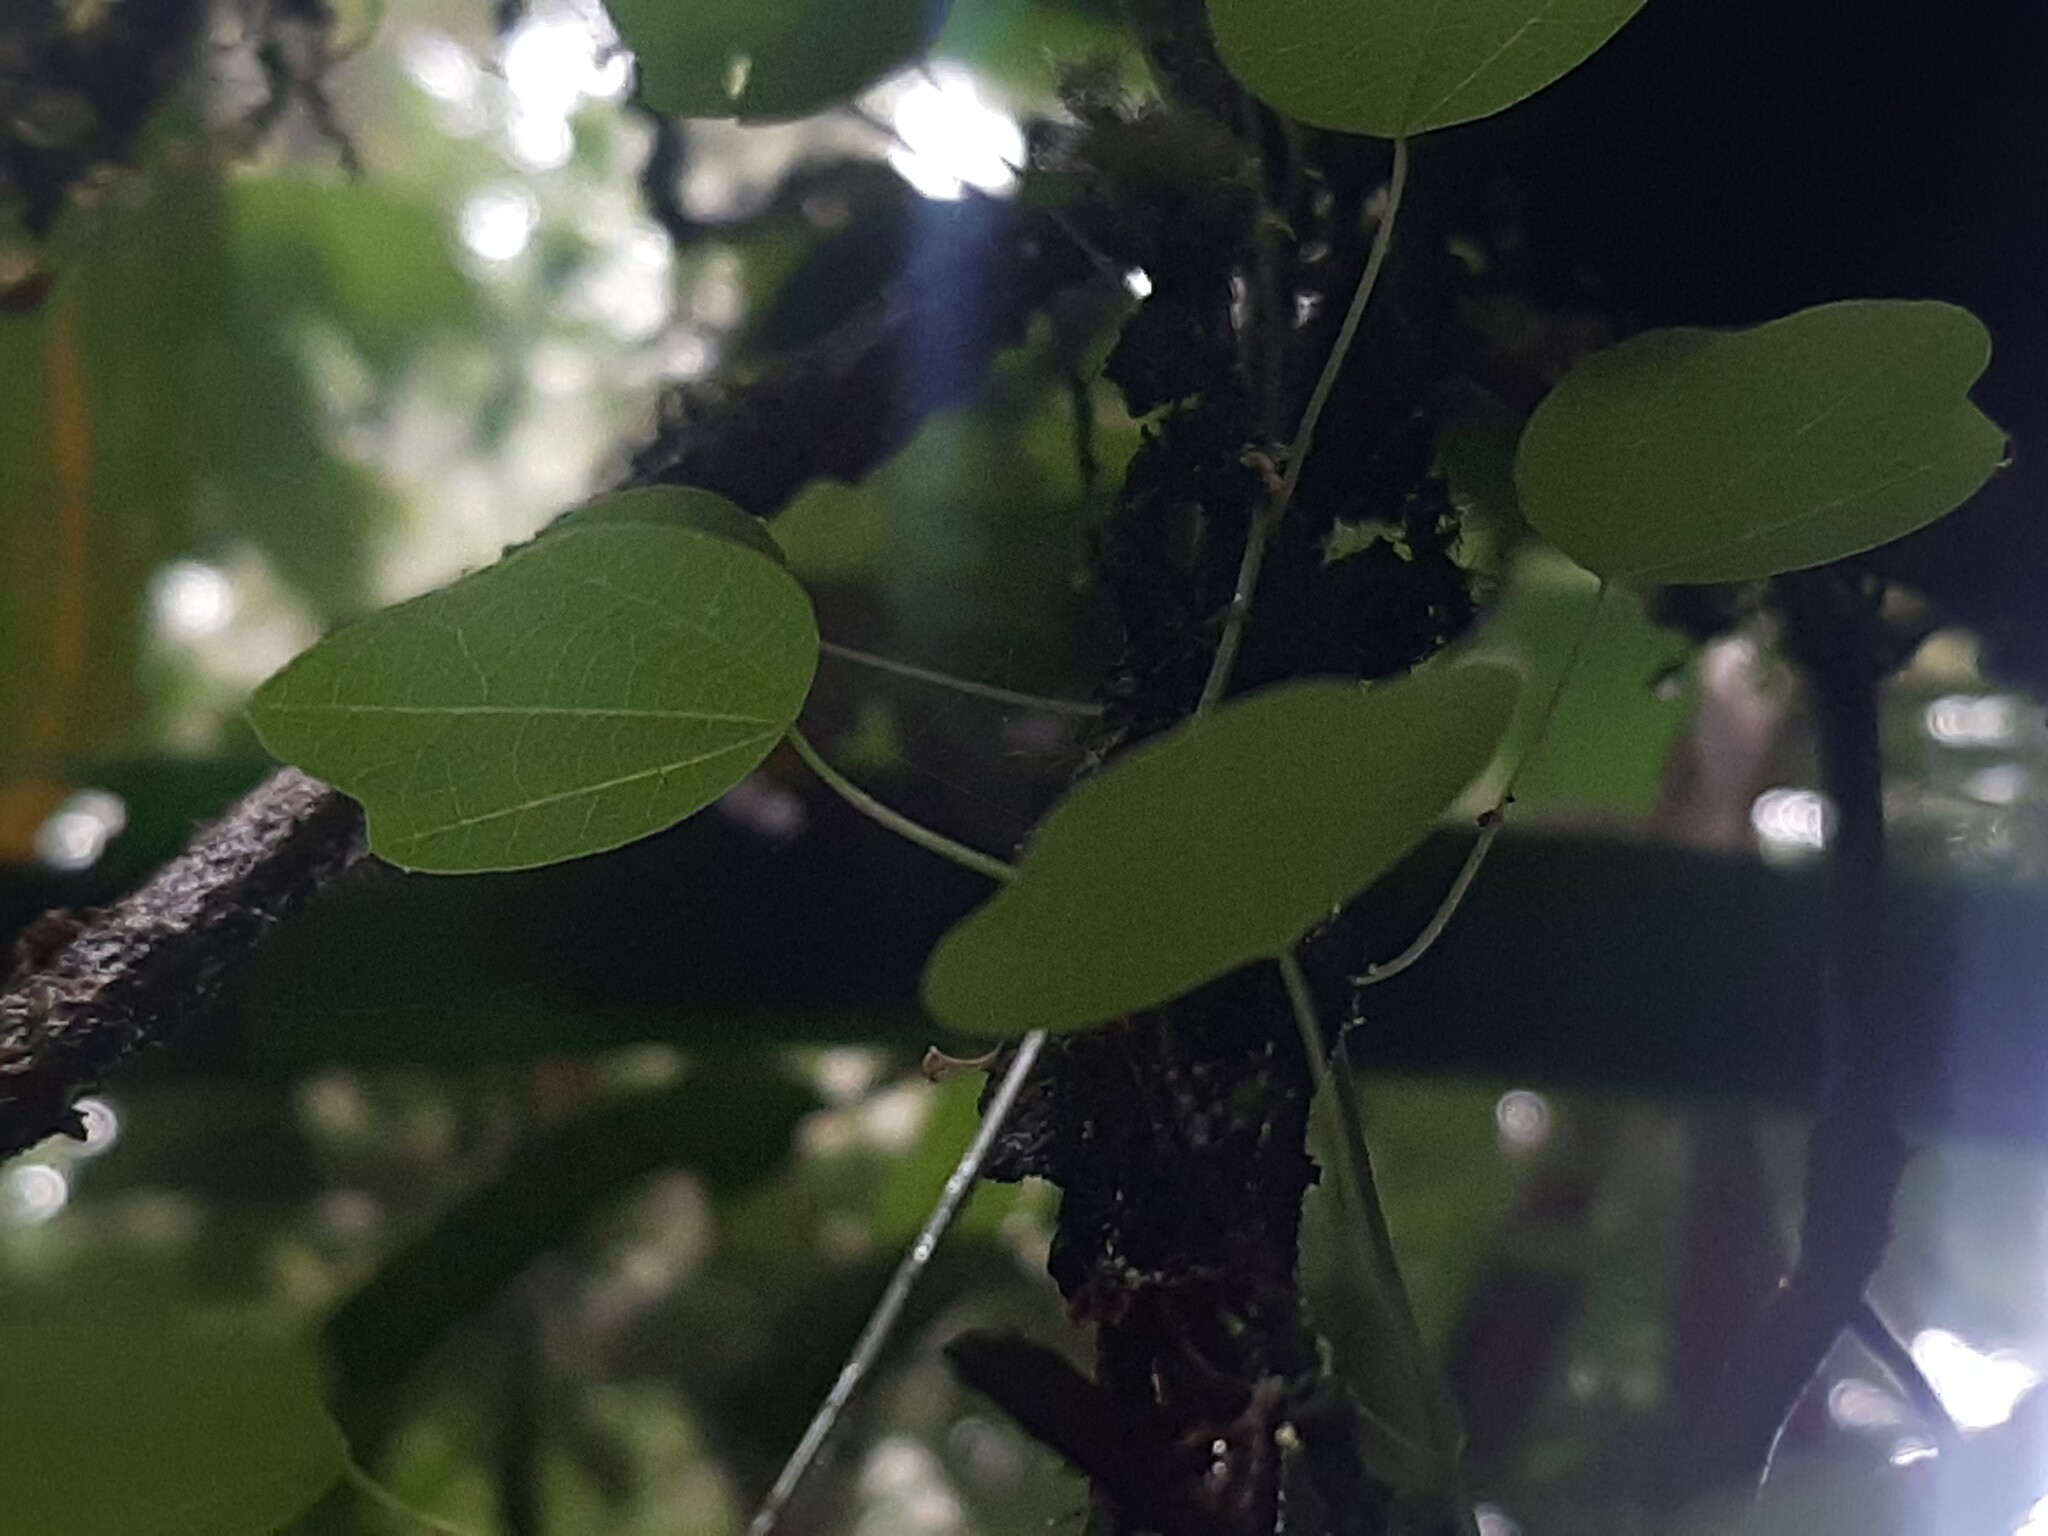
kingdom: Plantae
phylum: Tracheophyta
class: Magnoliopsida
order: Malpighiales
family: Passifloraceae
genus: Passiflora
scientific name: Passiflora insolita
